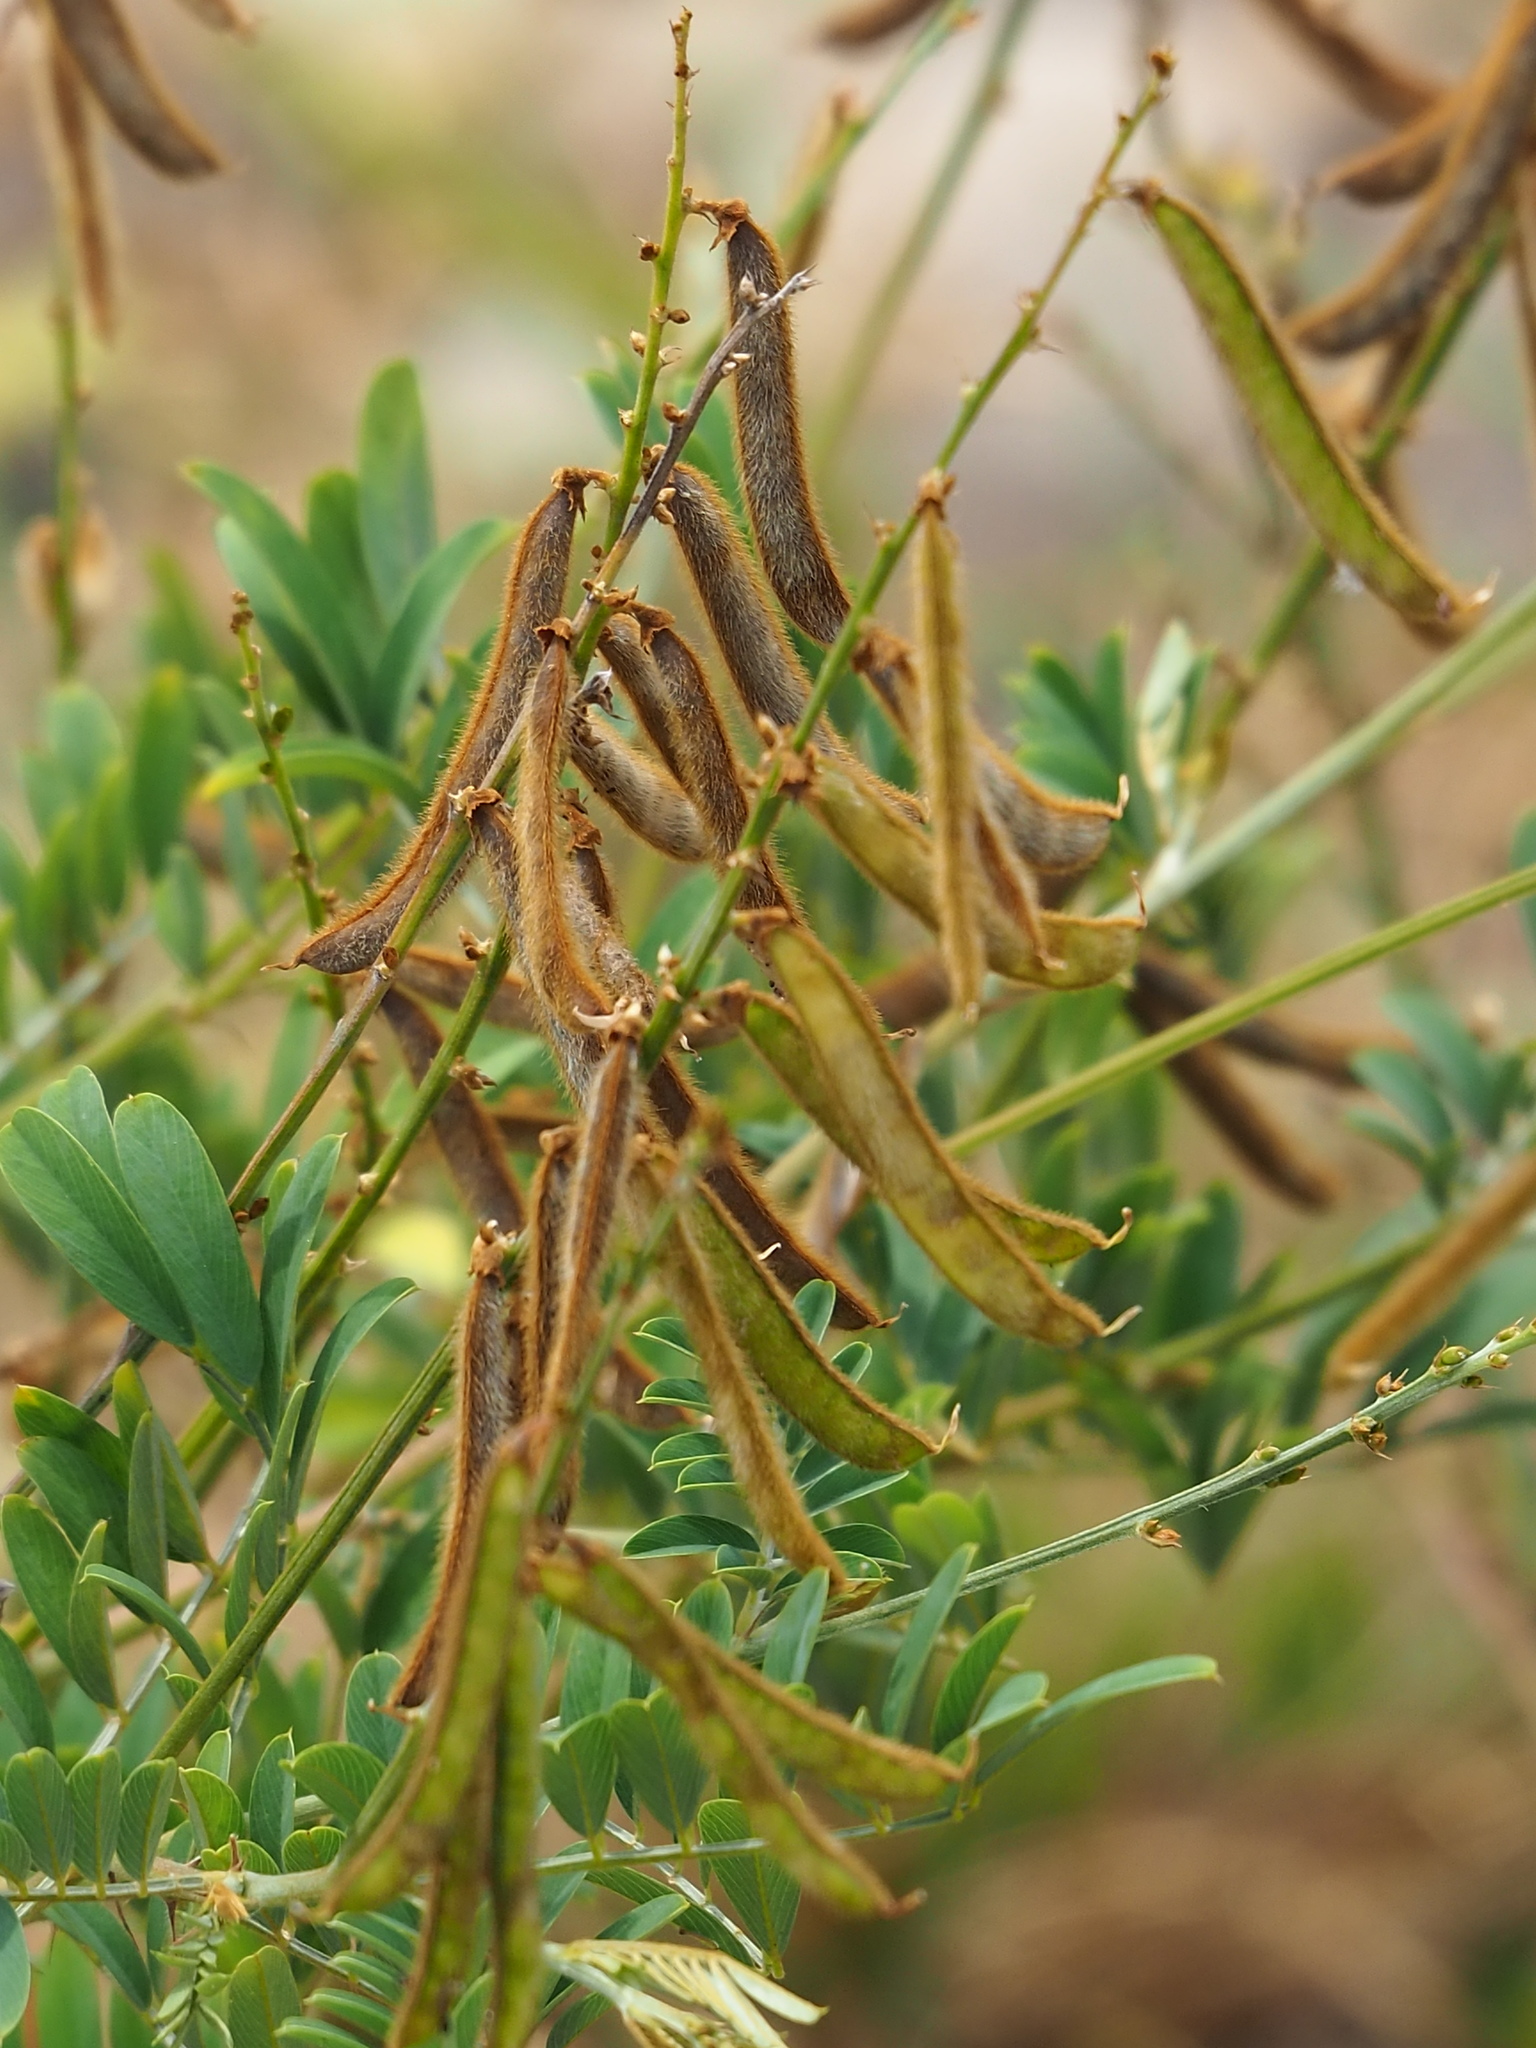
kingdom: Plantae
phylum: Tracheophyta
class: Magnoliopsida
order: Fabales
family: Fabaceae
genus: Tephrosia
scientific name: Tephrosia noctiflora
